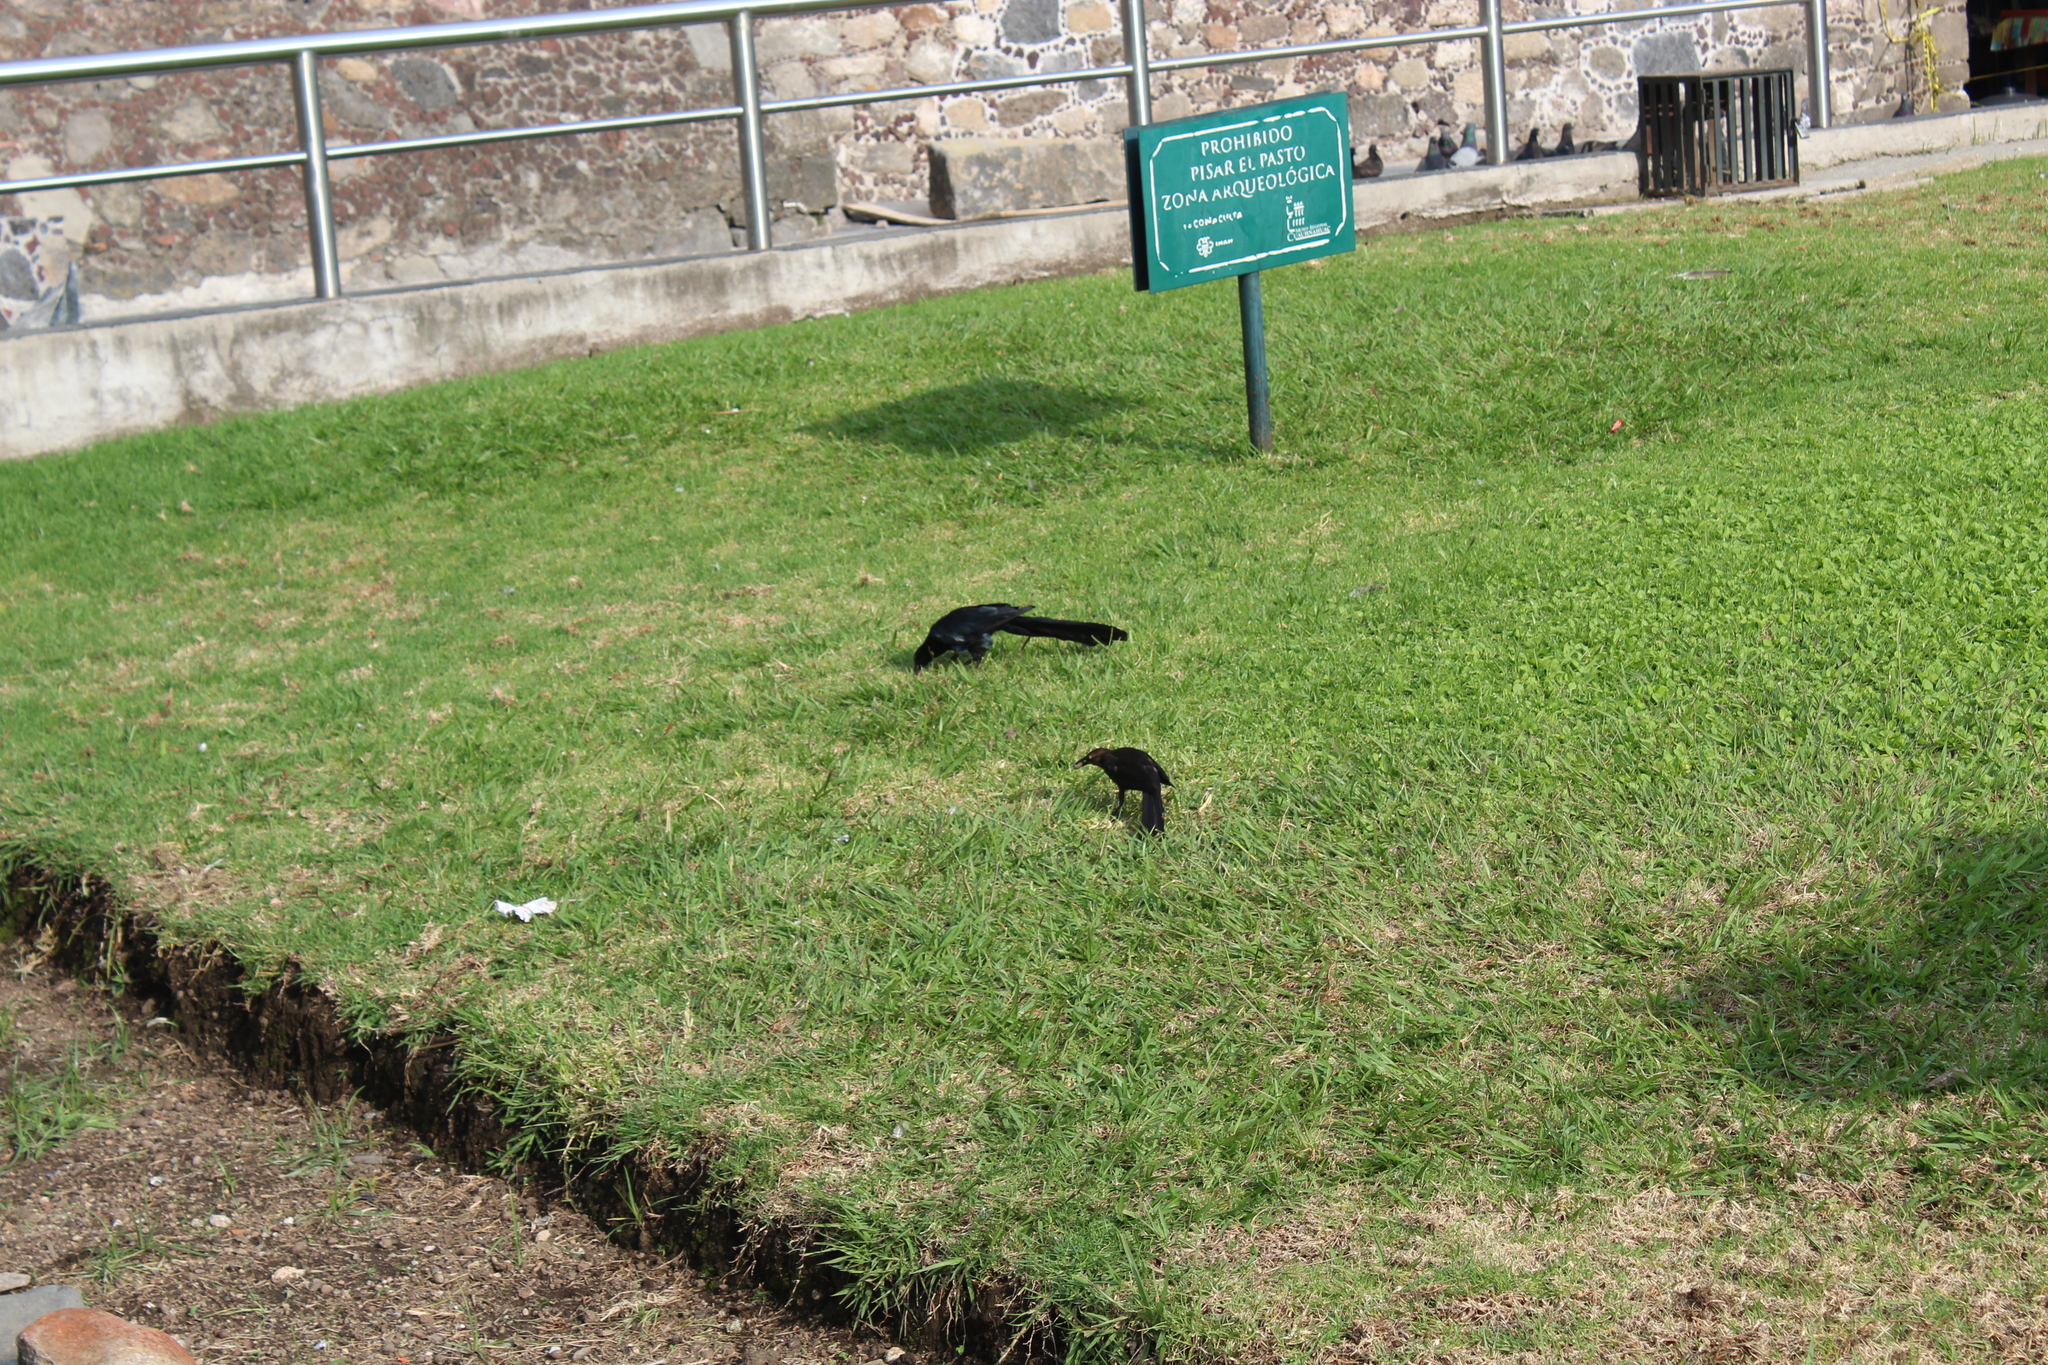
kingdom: Animalia
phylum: Chordata
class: Aves
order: Passeriformes
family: Icteridae
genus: Quiscalus
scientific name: Quiscalus mexicanus
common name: Great-tailed grackle
